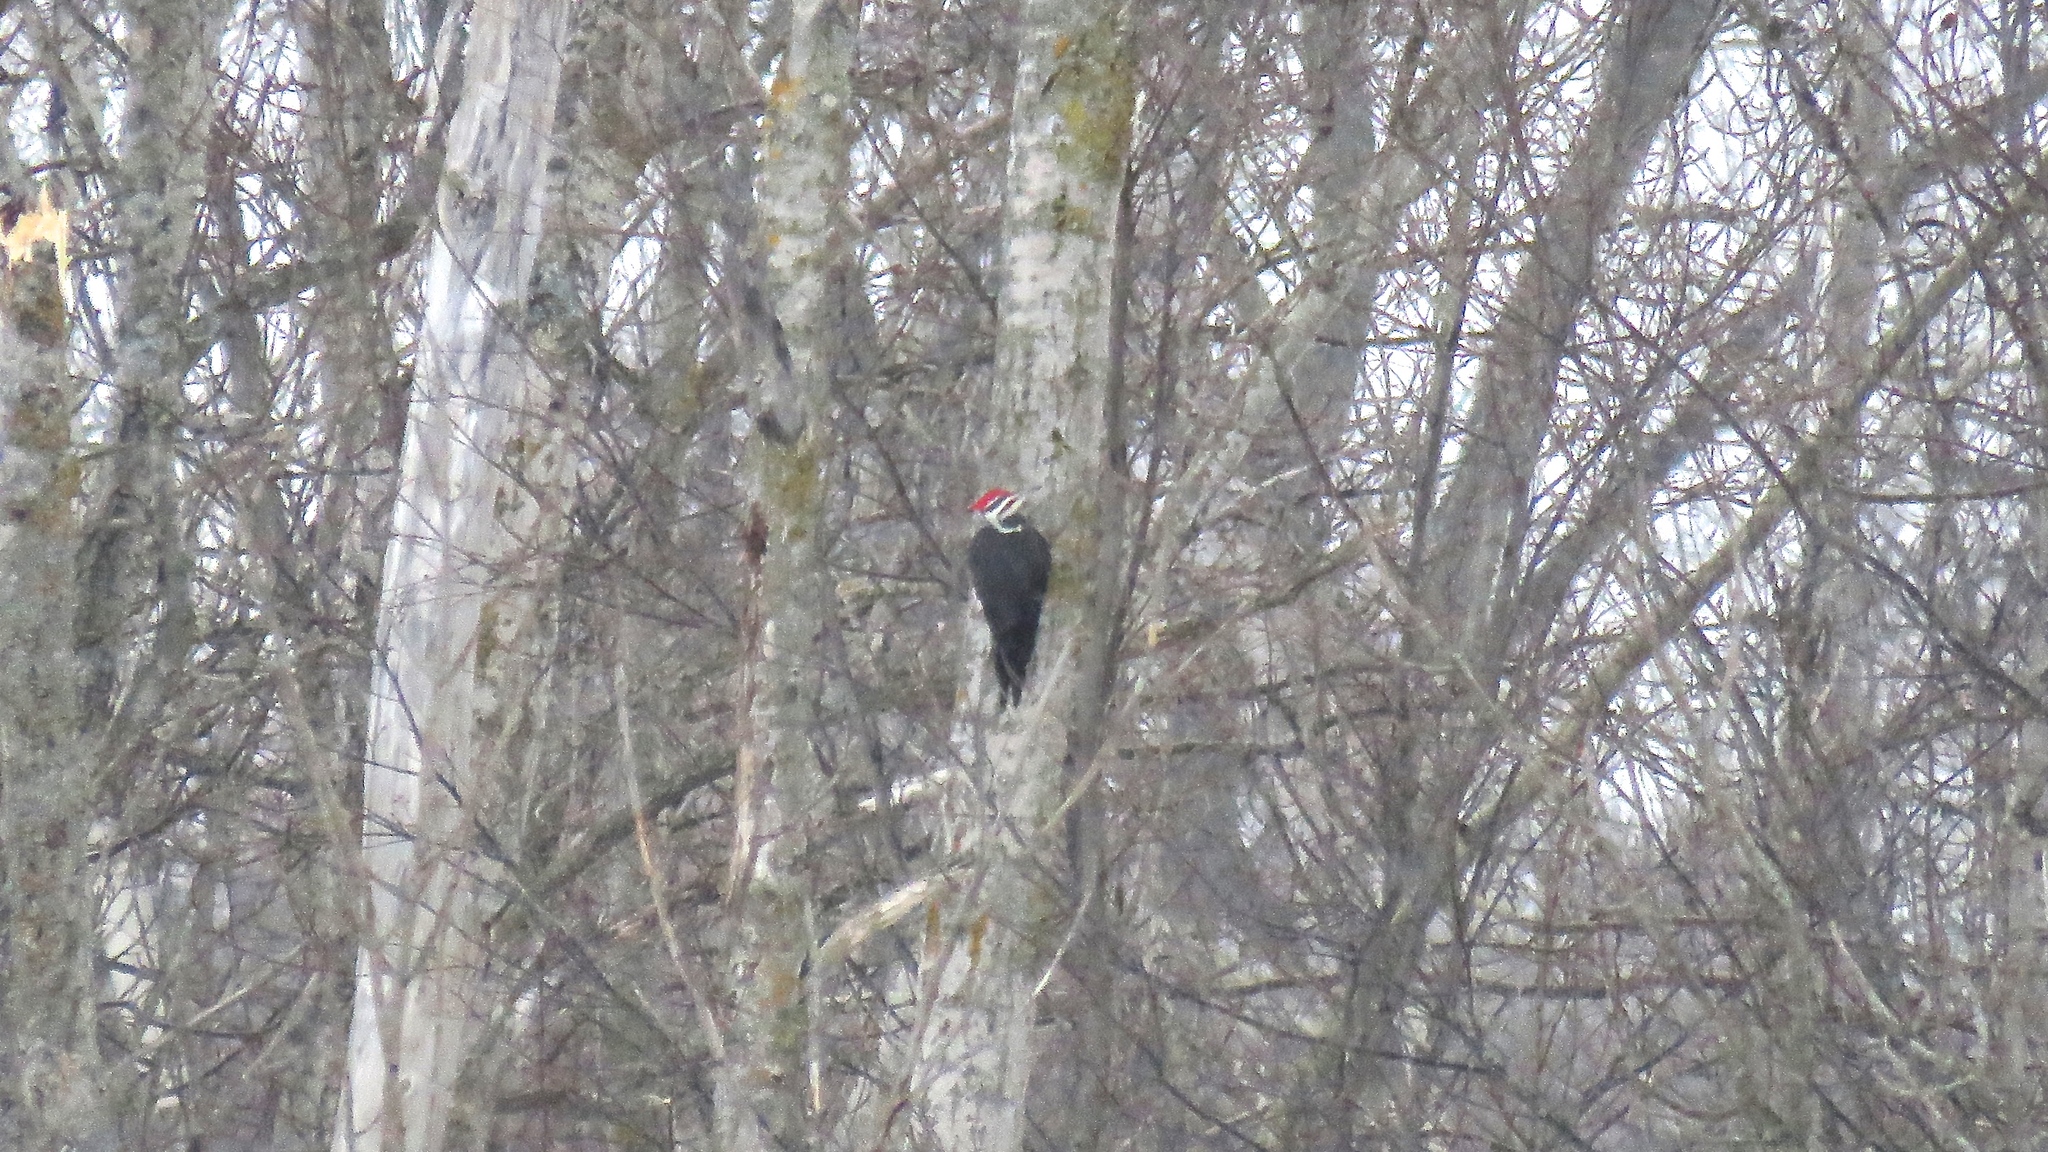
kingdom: Animalia
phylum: Chordata
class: Aves
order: Piciformes
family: Picidae
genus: Dryocopus
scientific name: Dryocopus pileatus
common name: Pileated woodpecker
